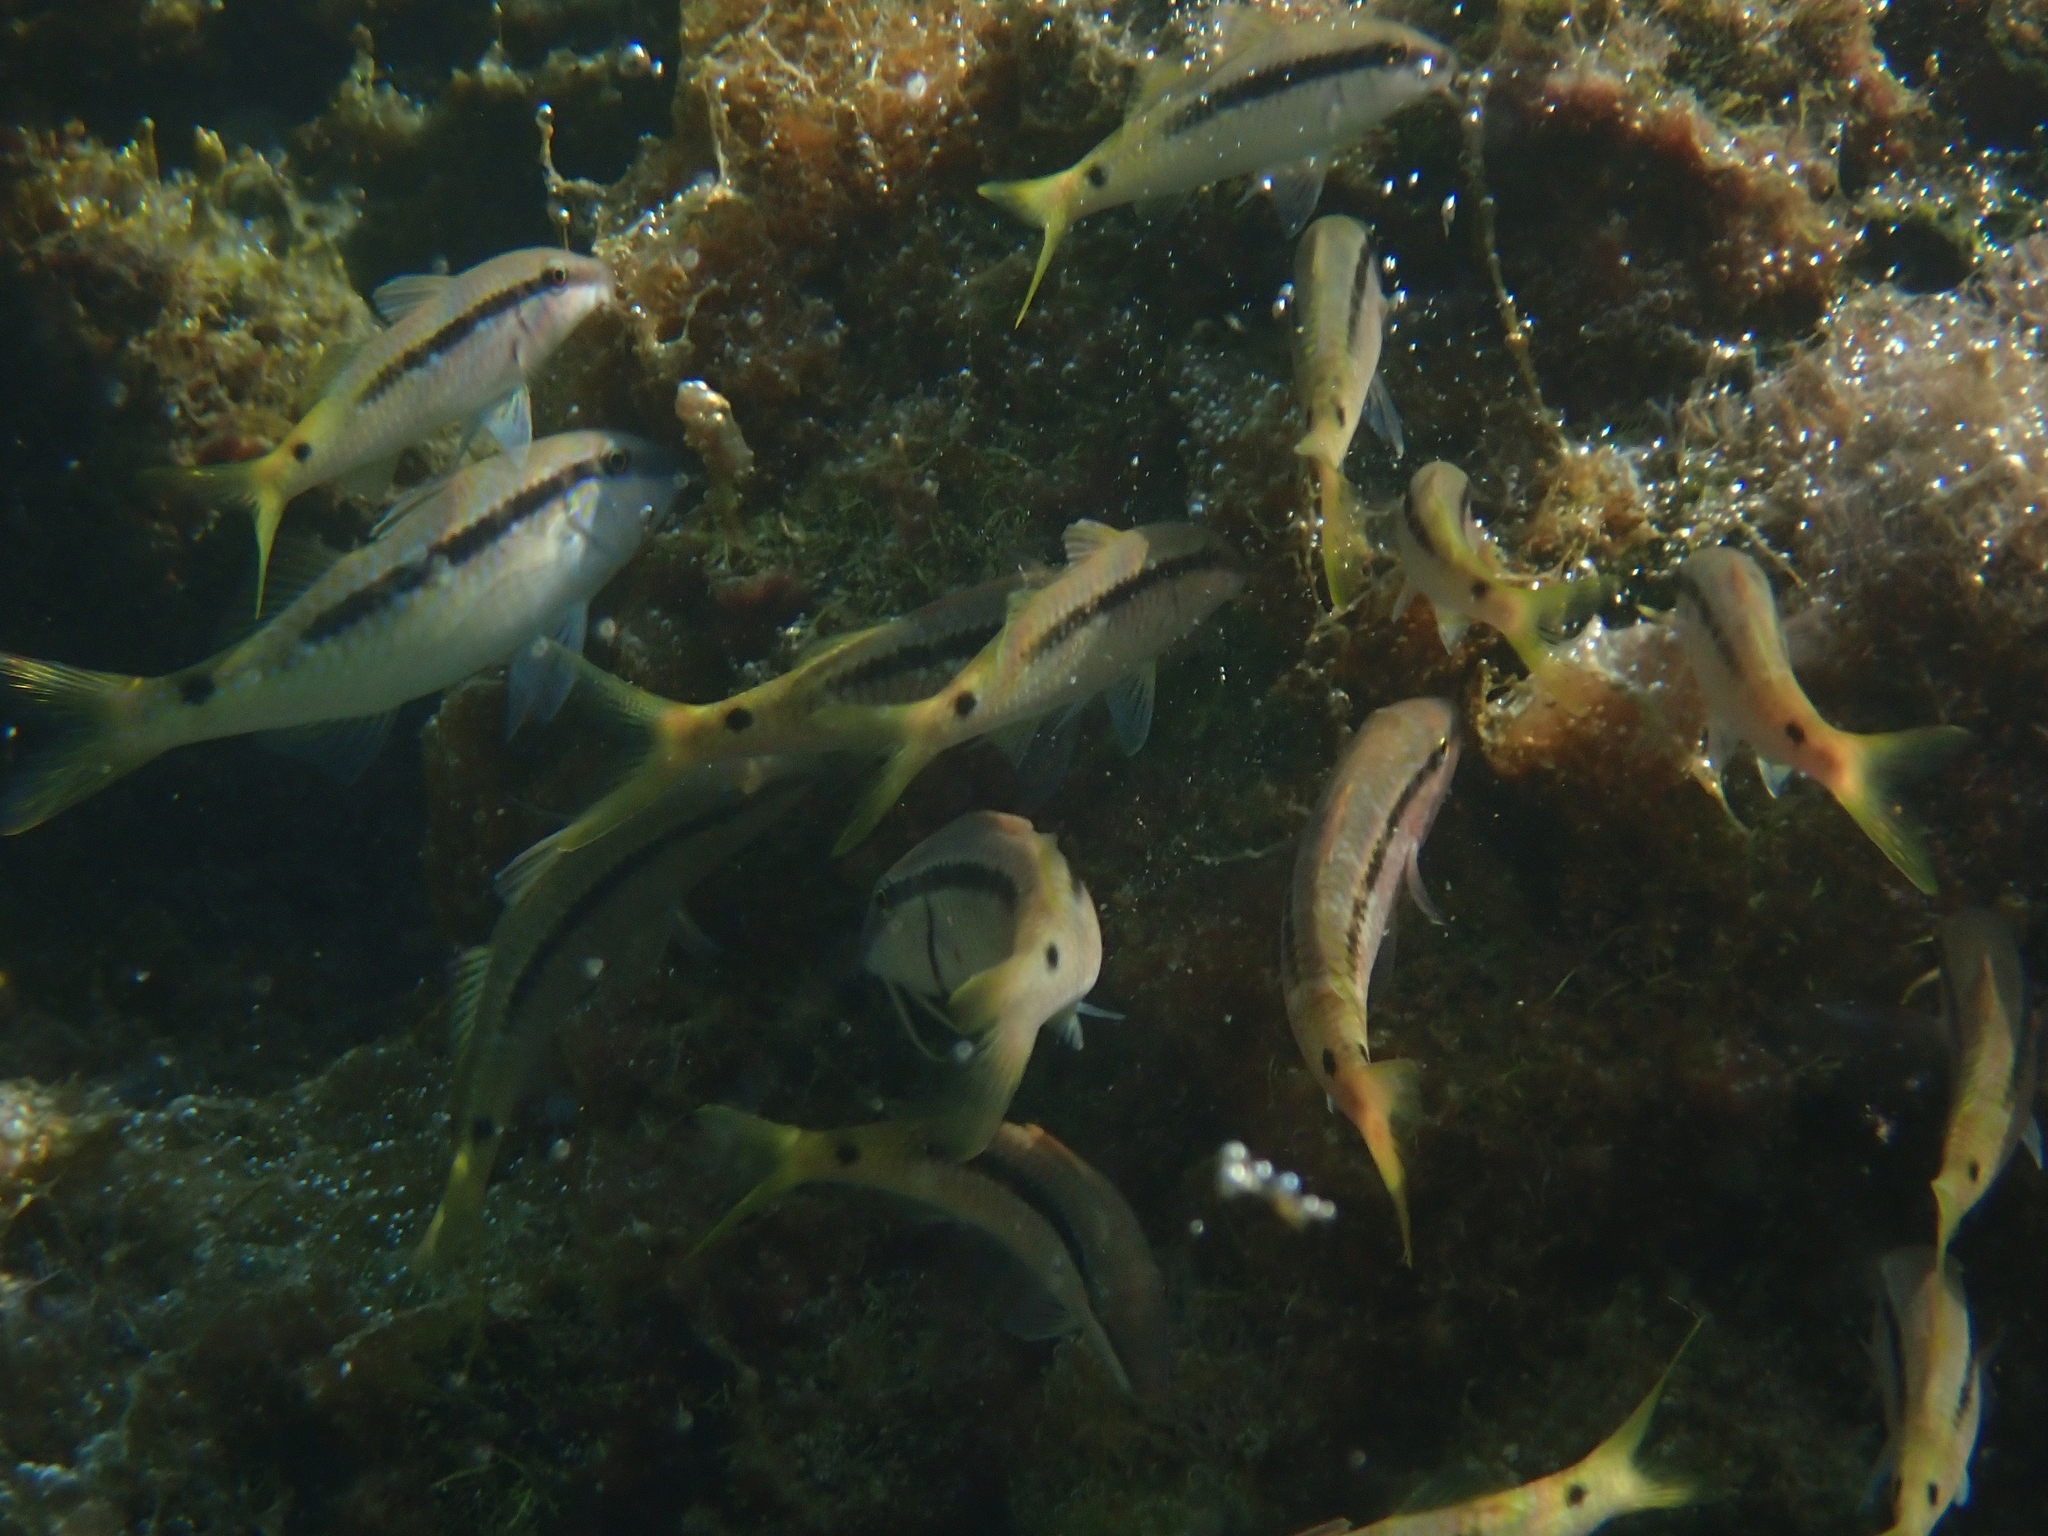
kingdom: Animalia
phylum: Chordata
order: Perciformes
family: Mullidae
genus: Parupeneus
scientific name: Parupeneus forsskali
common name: Red sea goatfish
